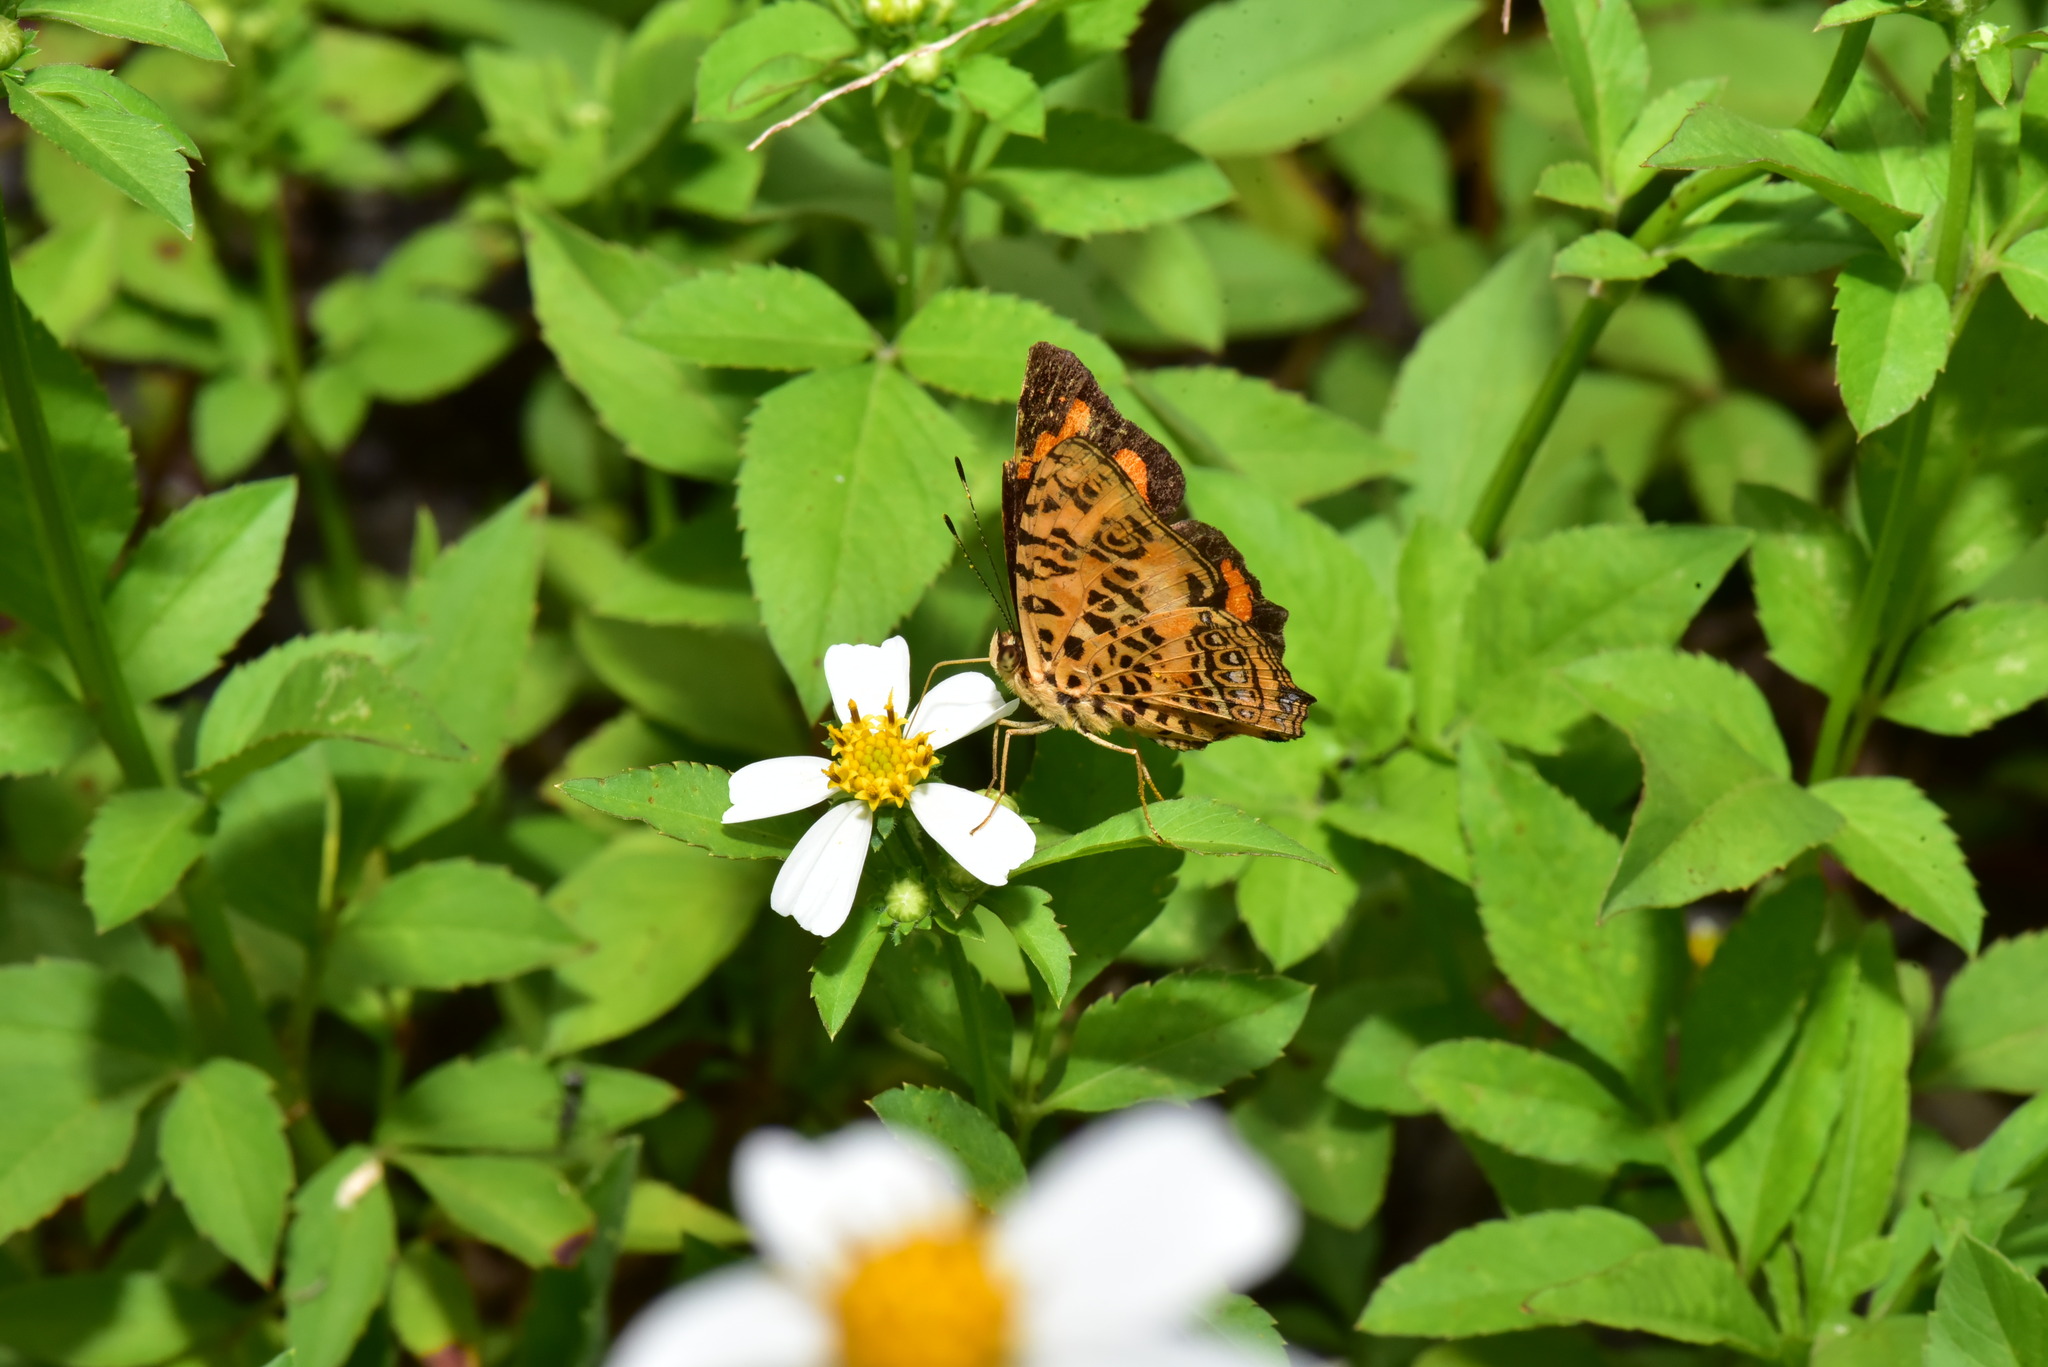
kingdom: Animalia
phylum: Arthropoda
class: Insecta
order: Lepidoptera
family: Nymphalidae
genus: Symbrenthia
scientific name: Symbrenthia brabira
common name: Yellow jester
